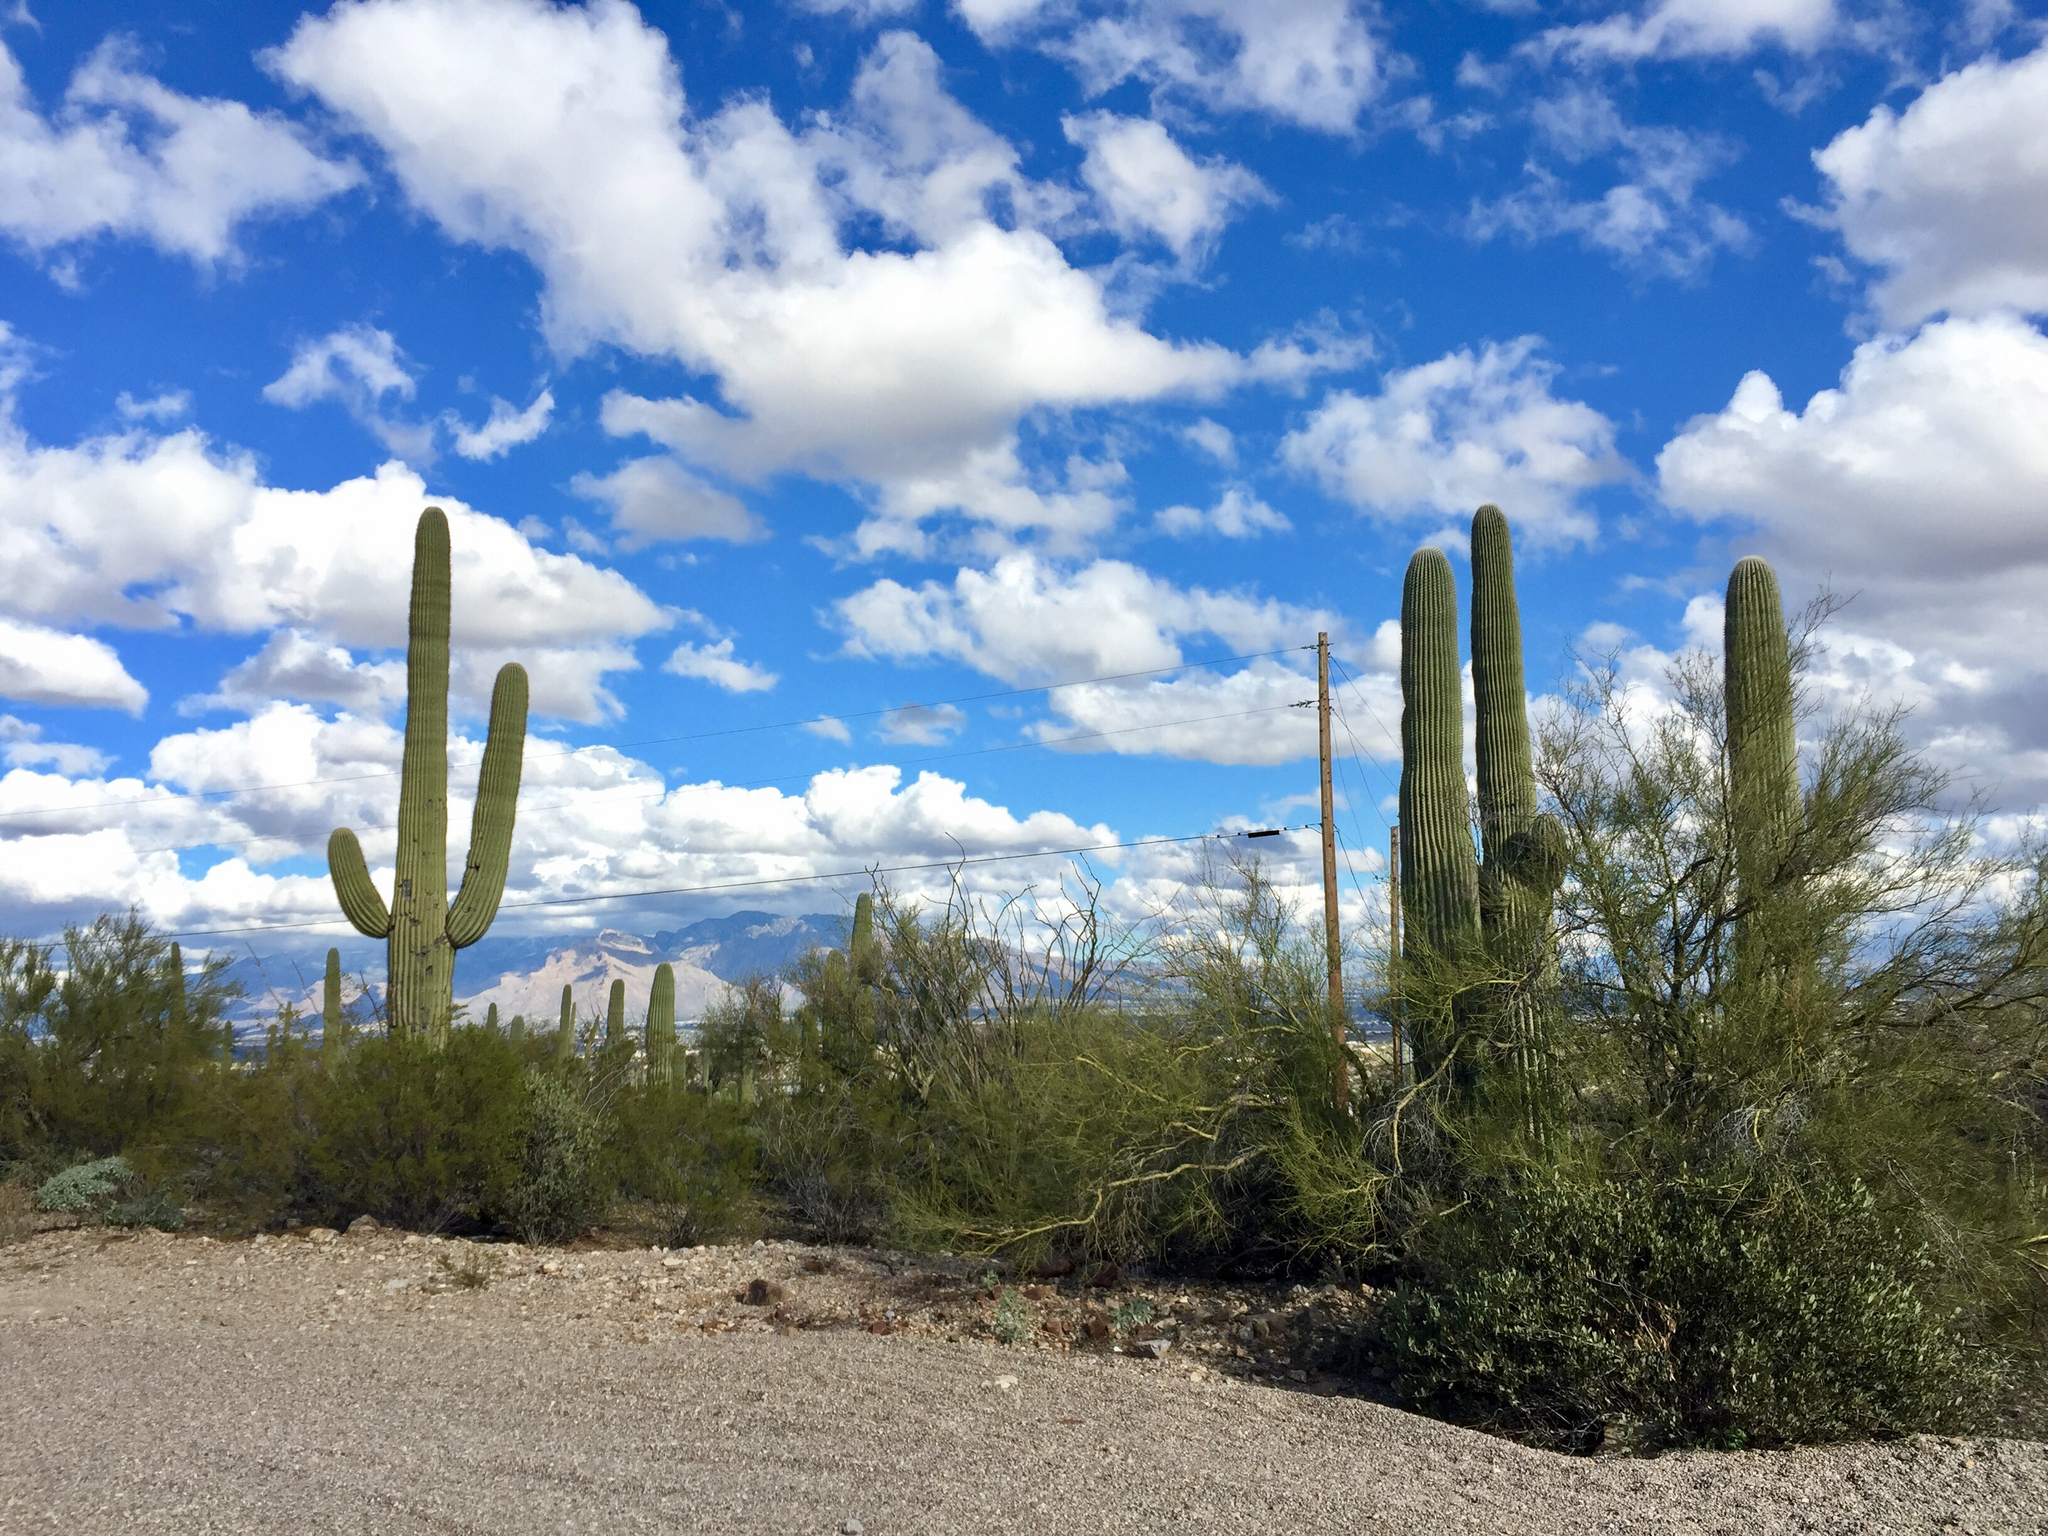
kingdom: Plantae
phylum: Tracheophyta
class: Magnoliopsida
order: Caryophyllales
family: Cactaceae
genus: Carnegiea
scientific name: Carnegiea gigantea
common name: Saguaro
